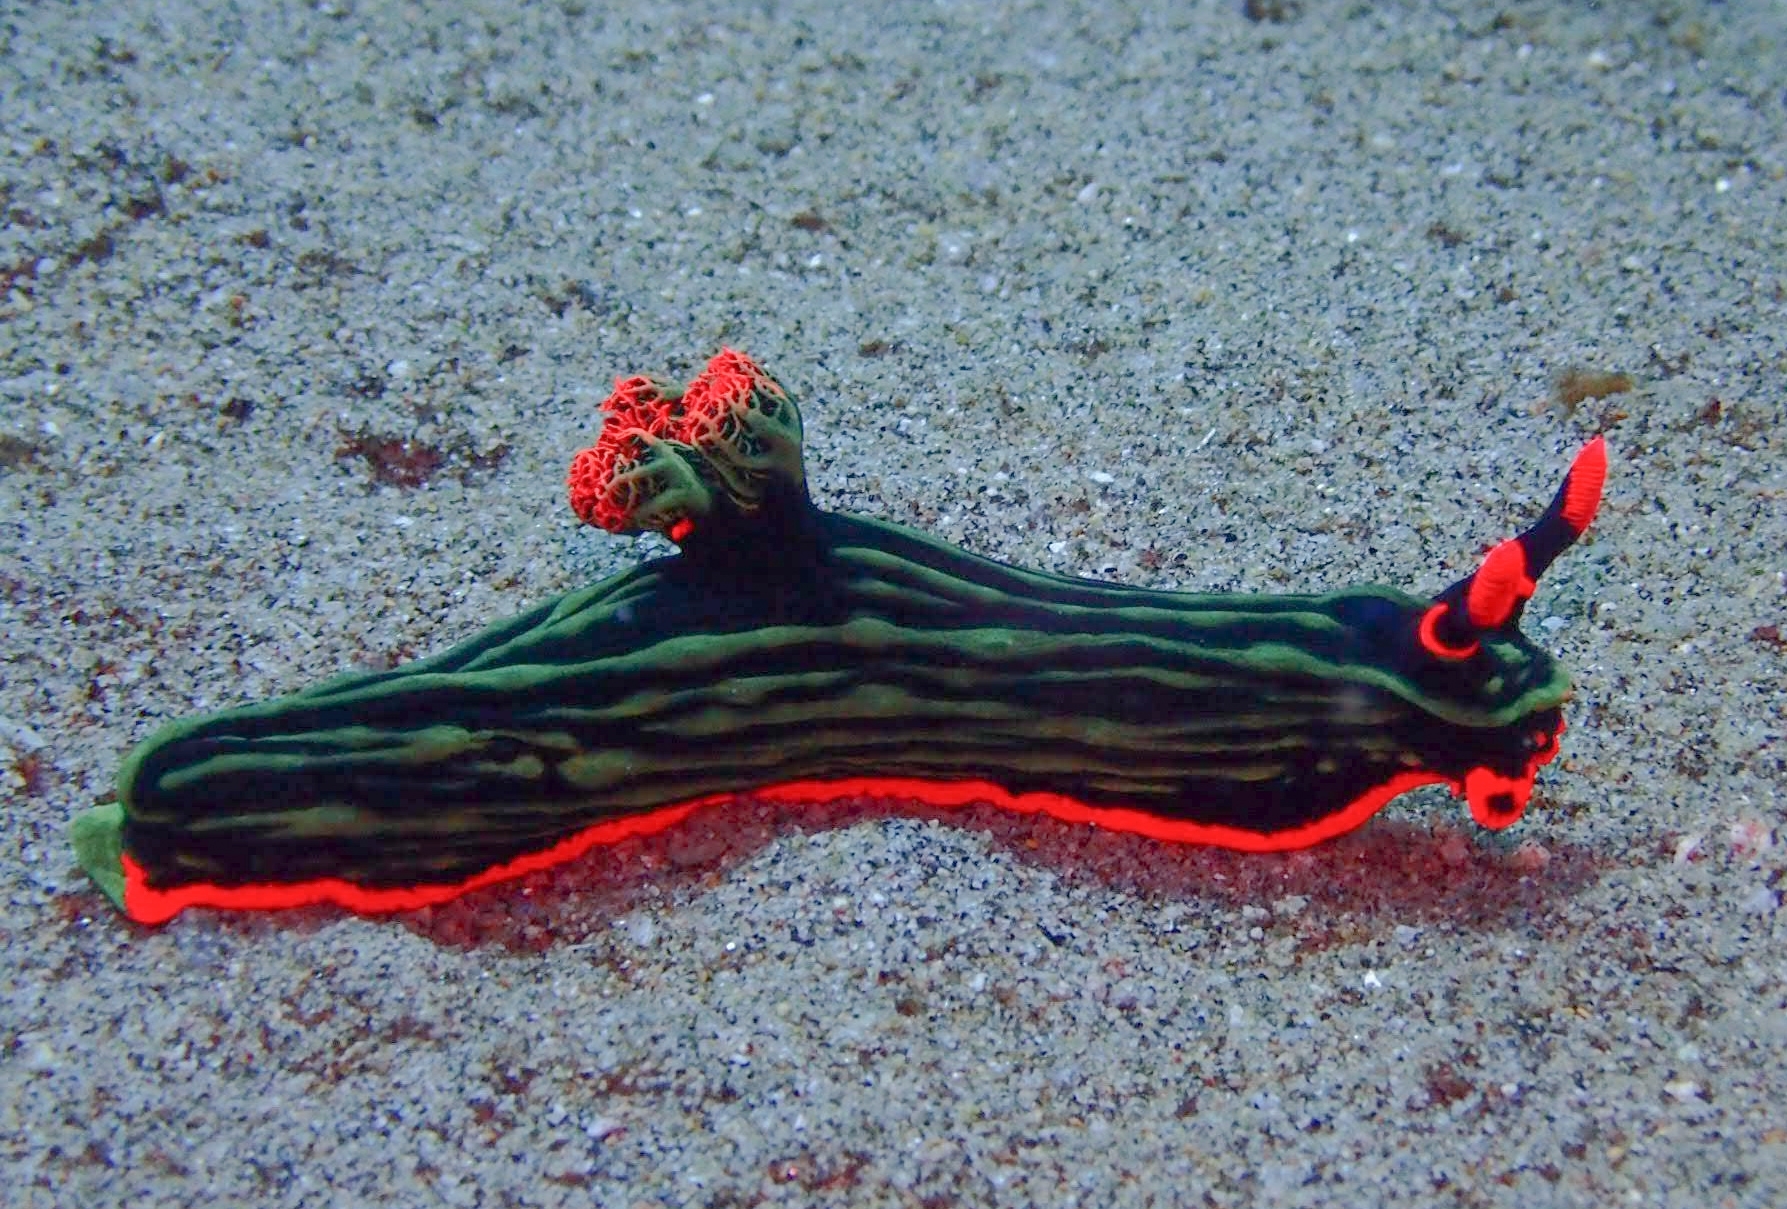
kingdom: Animalia
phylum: Mollusca
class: Gastropoda
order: Nudibranchia
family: Polyceridae
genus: Nembrotha
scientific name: Nembrotha kubaryana
